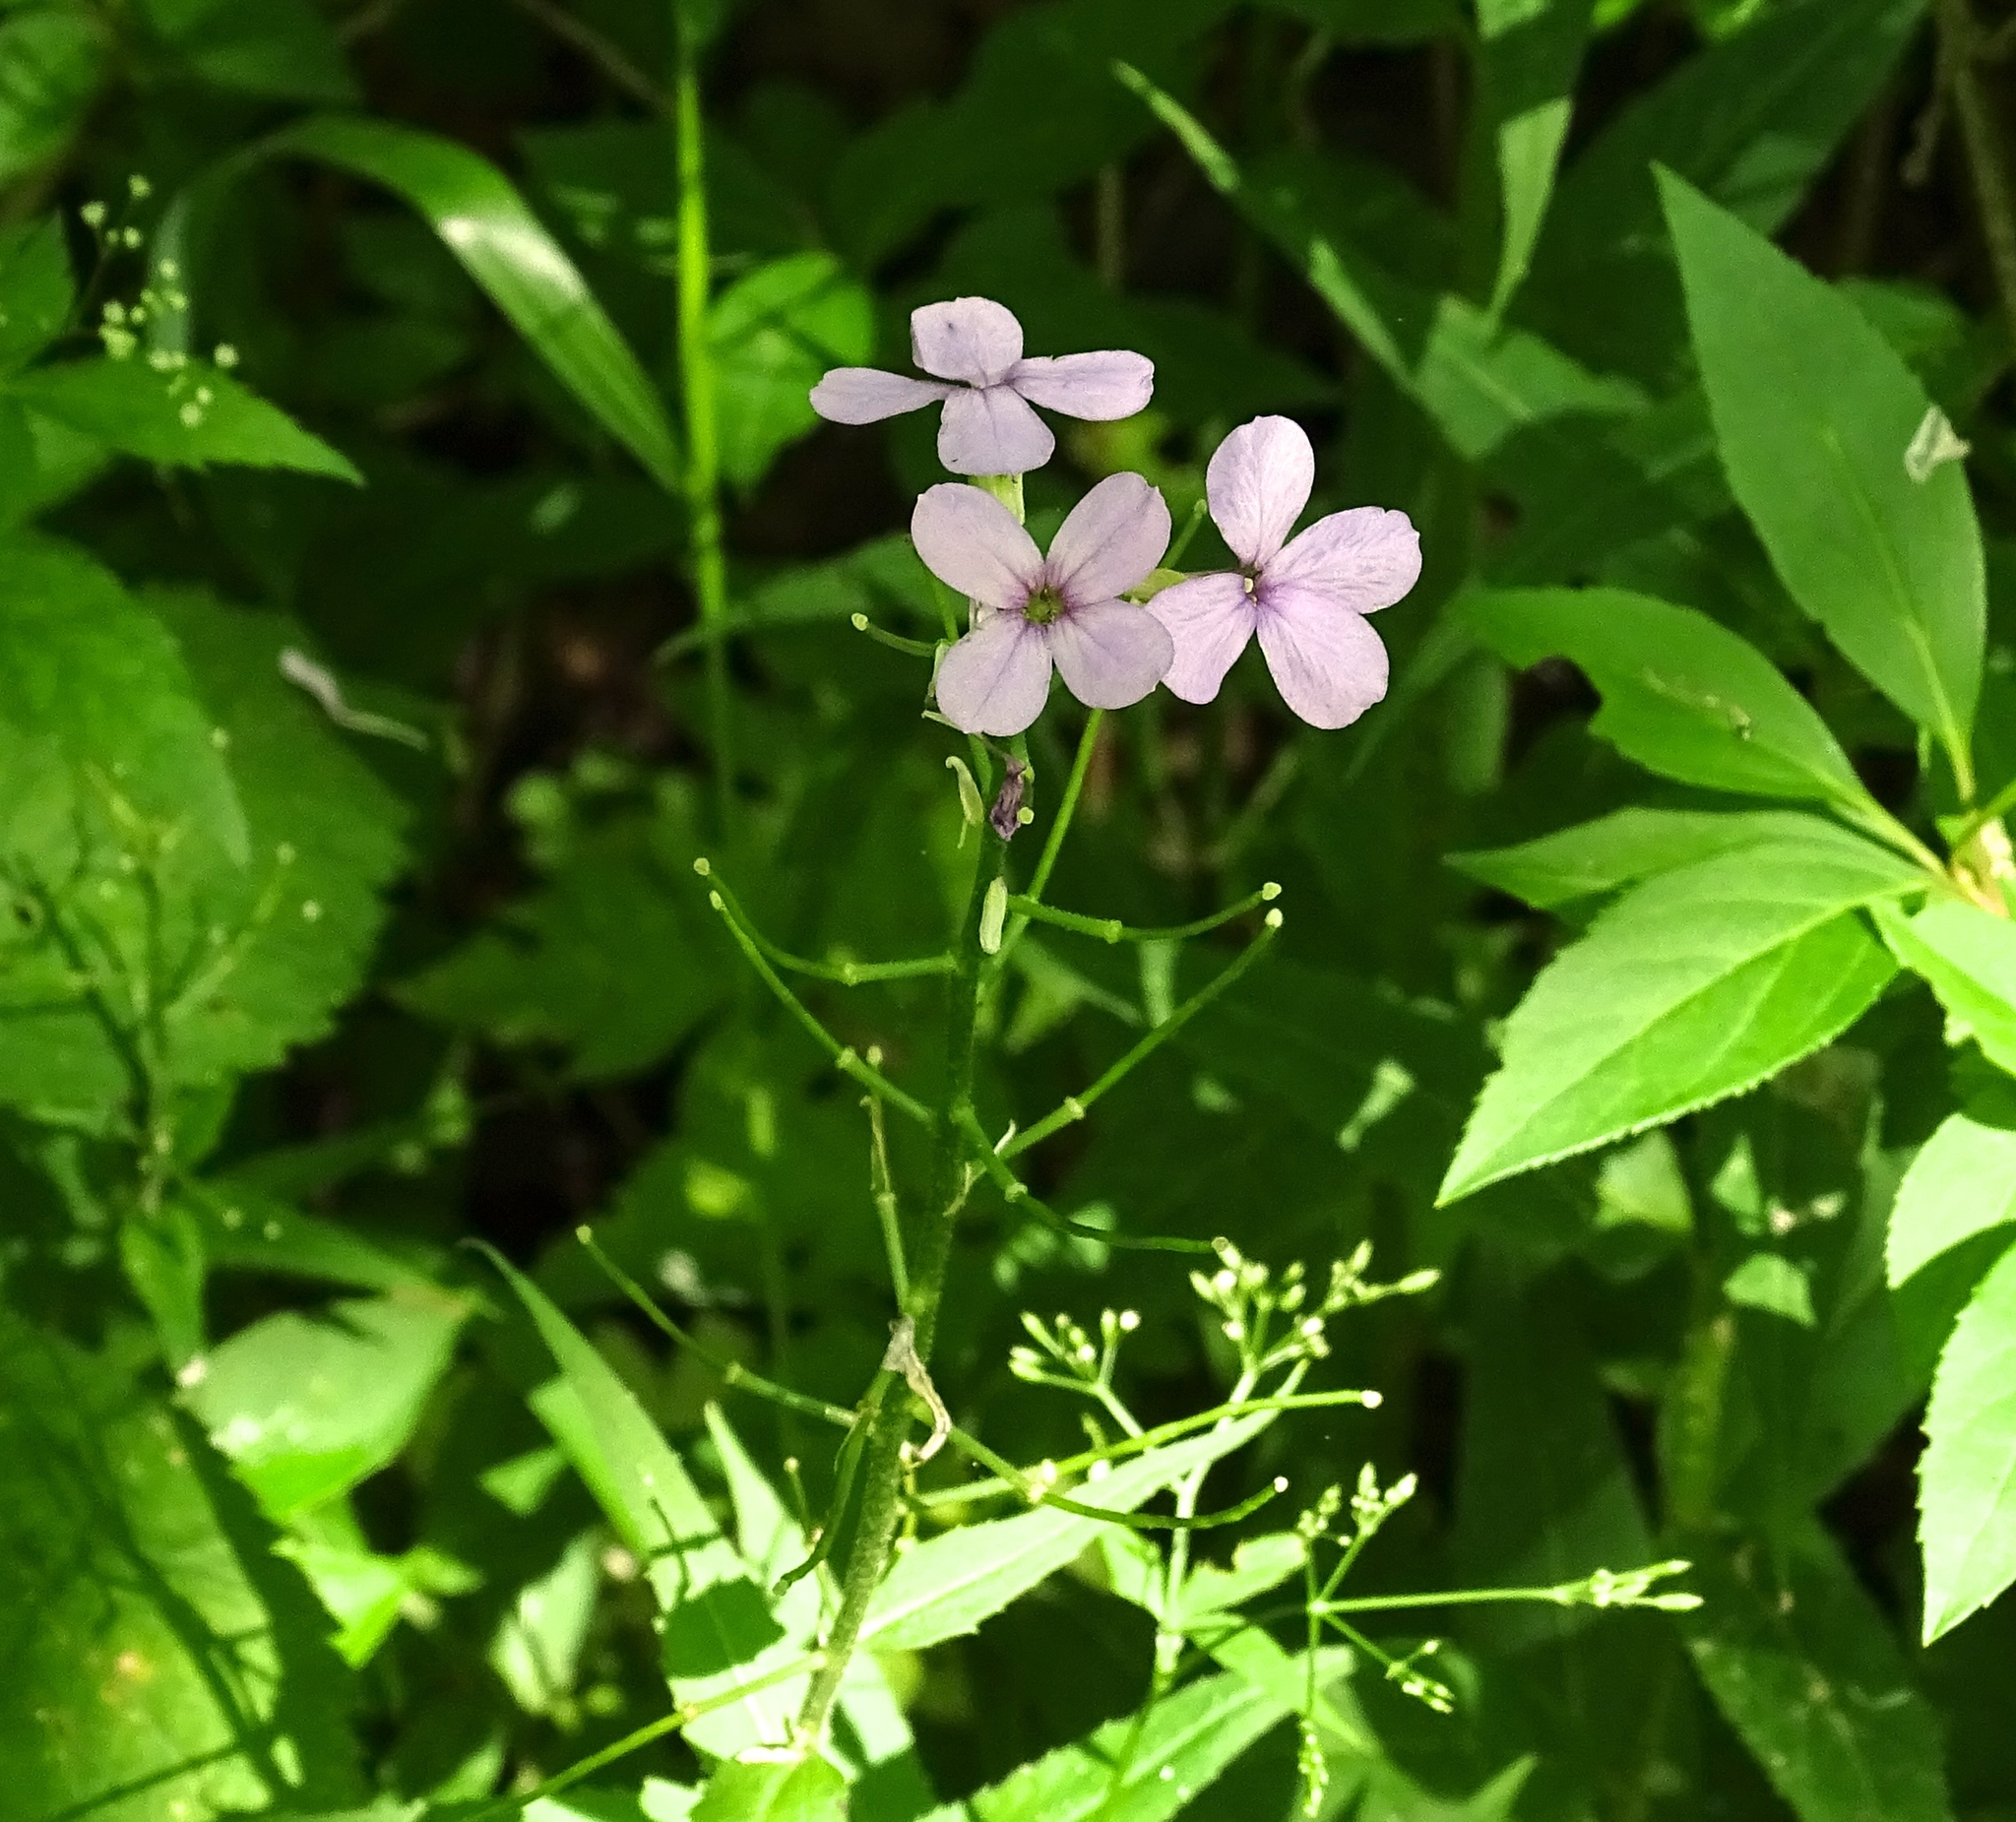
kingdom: Plantae
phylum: Tracheophyta
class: Magnoliopsida
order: Brassicales
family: Brassicaceae
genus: Hesperis
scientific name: Hesperis matronalis
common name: Dame's-violet
